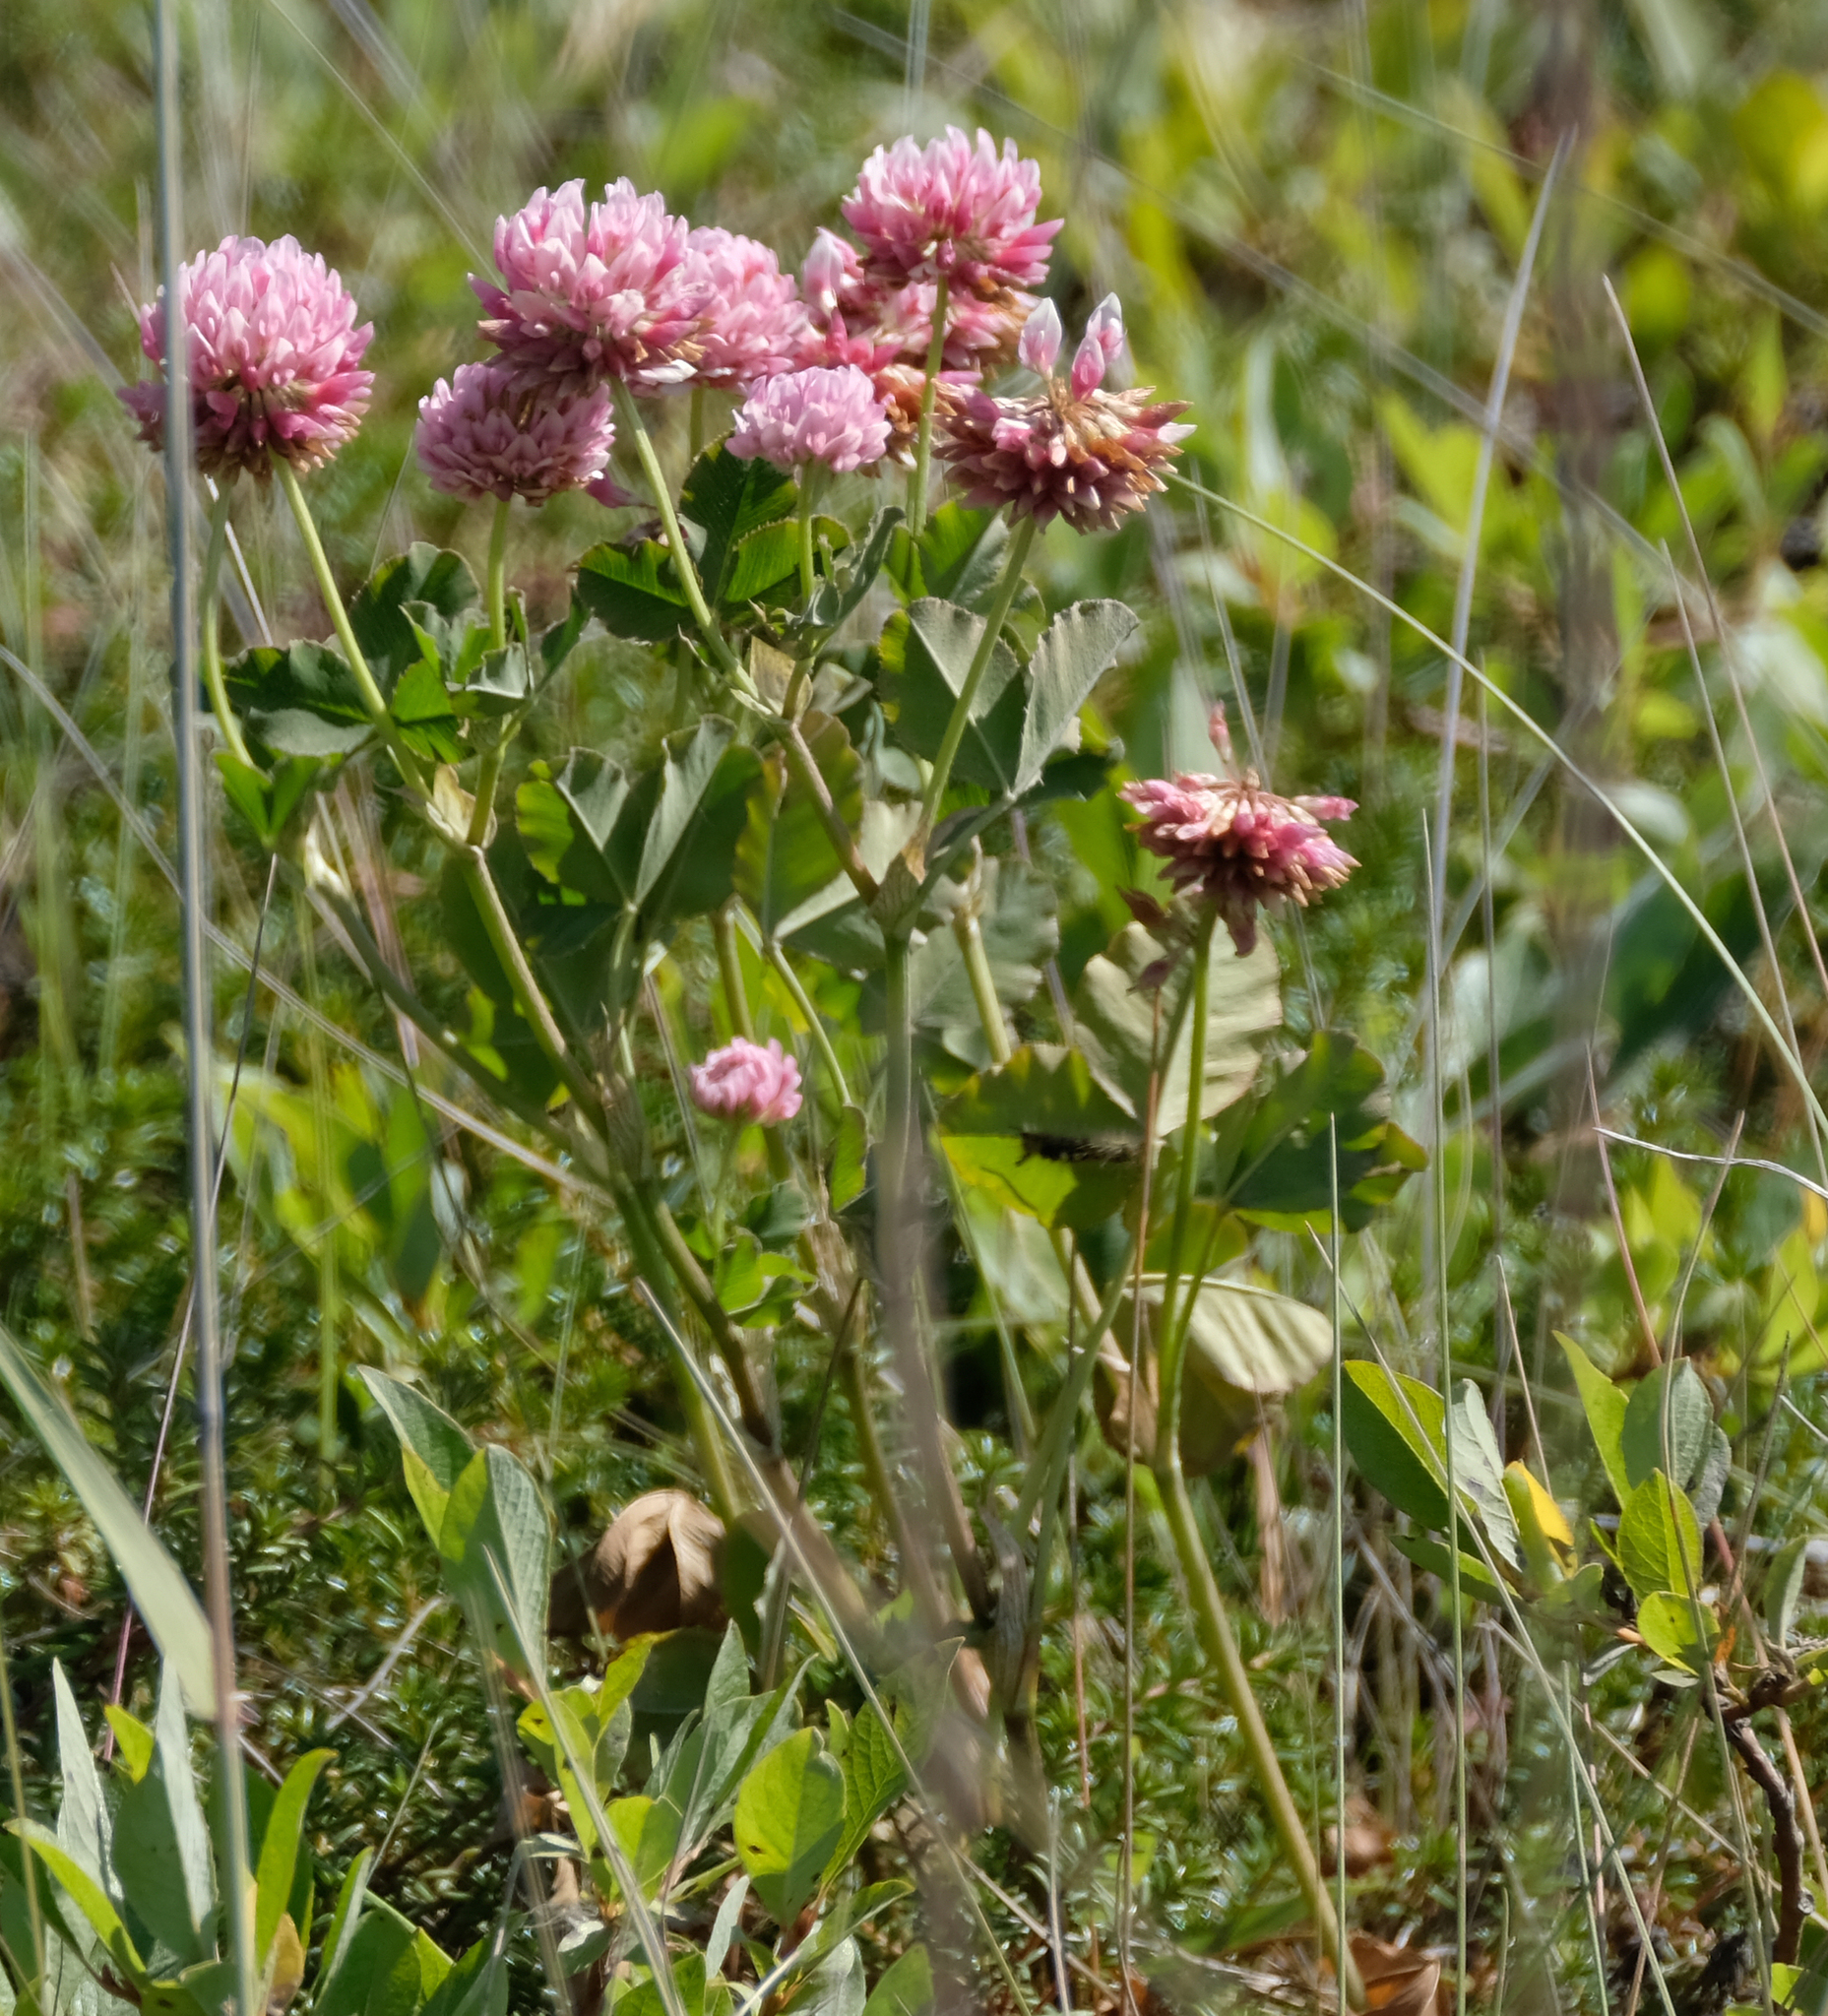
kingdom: Plantae
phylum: Tracheophyta
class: Magnoliopsida
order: Fabales
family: Fabaceae
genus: Trifolium
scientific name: Trifolium hybridum
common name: Alsike clover
